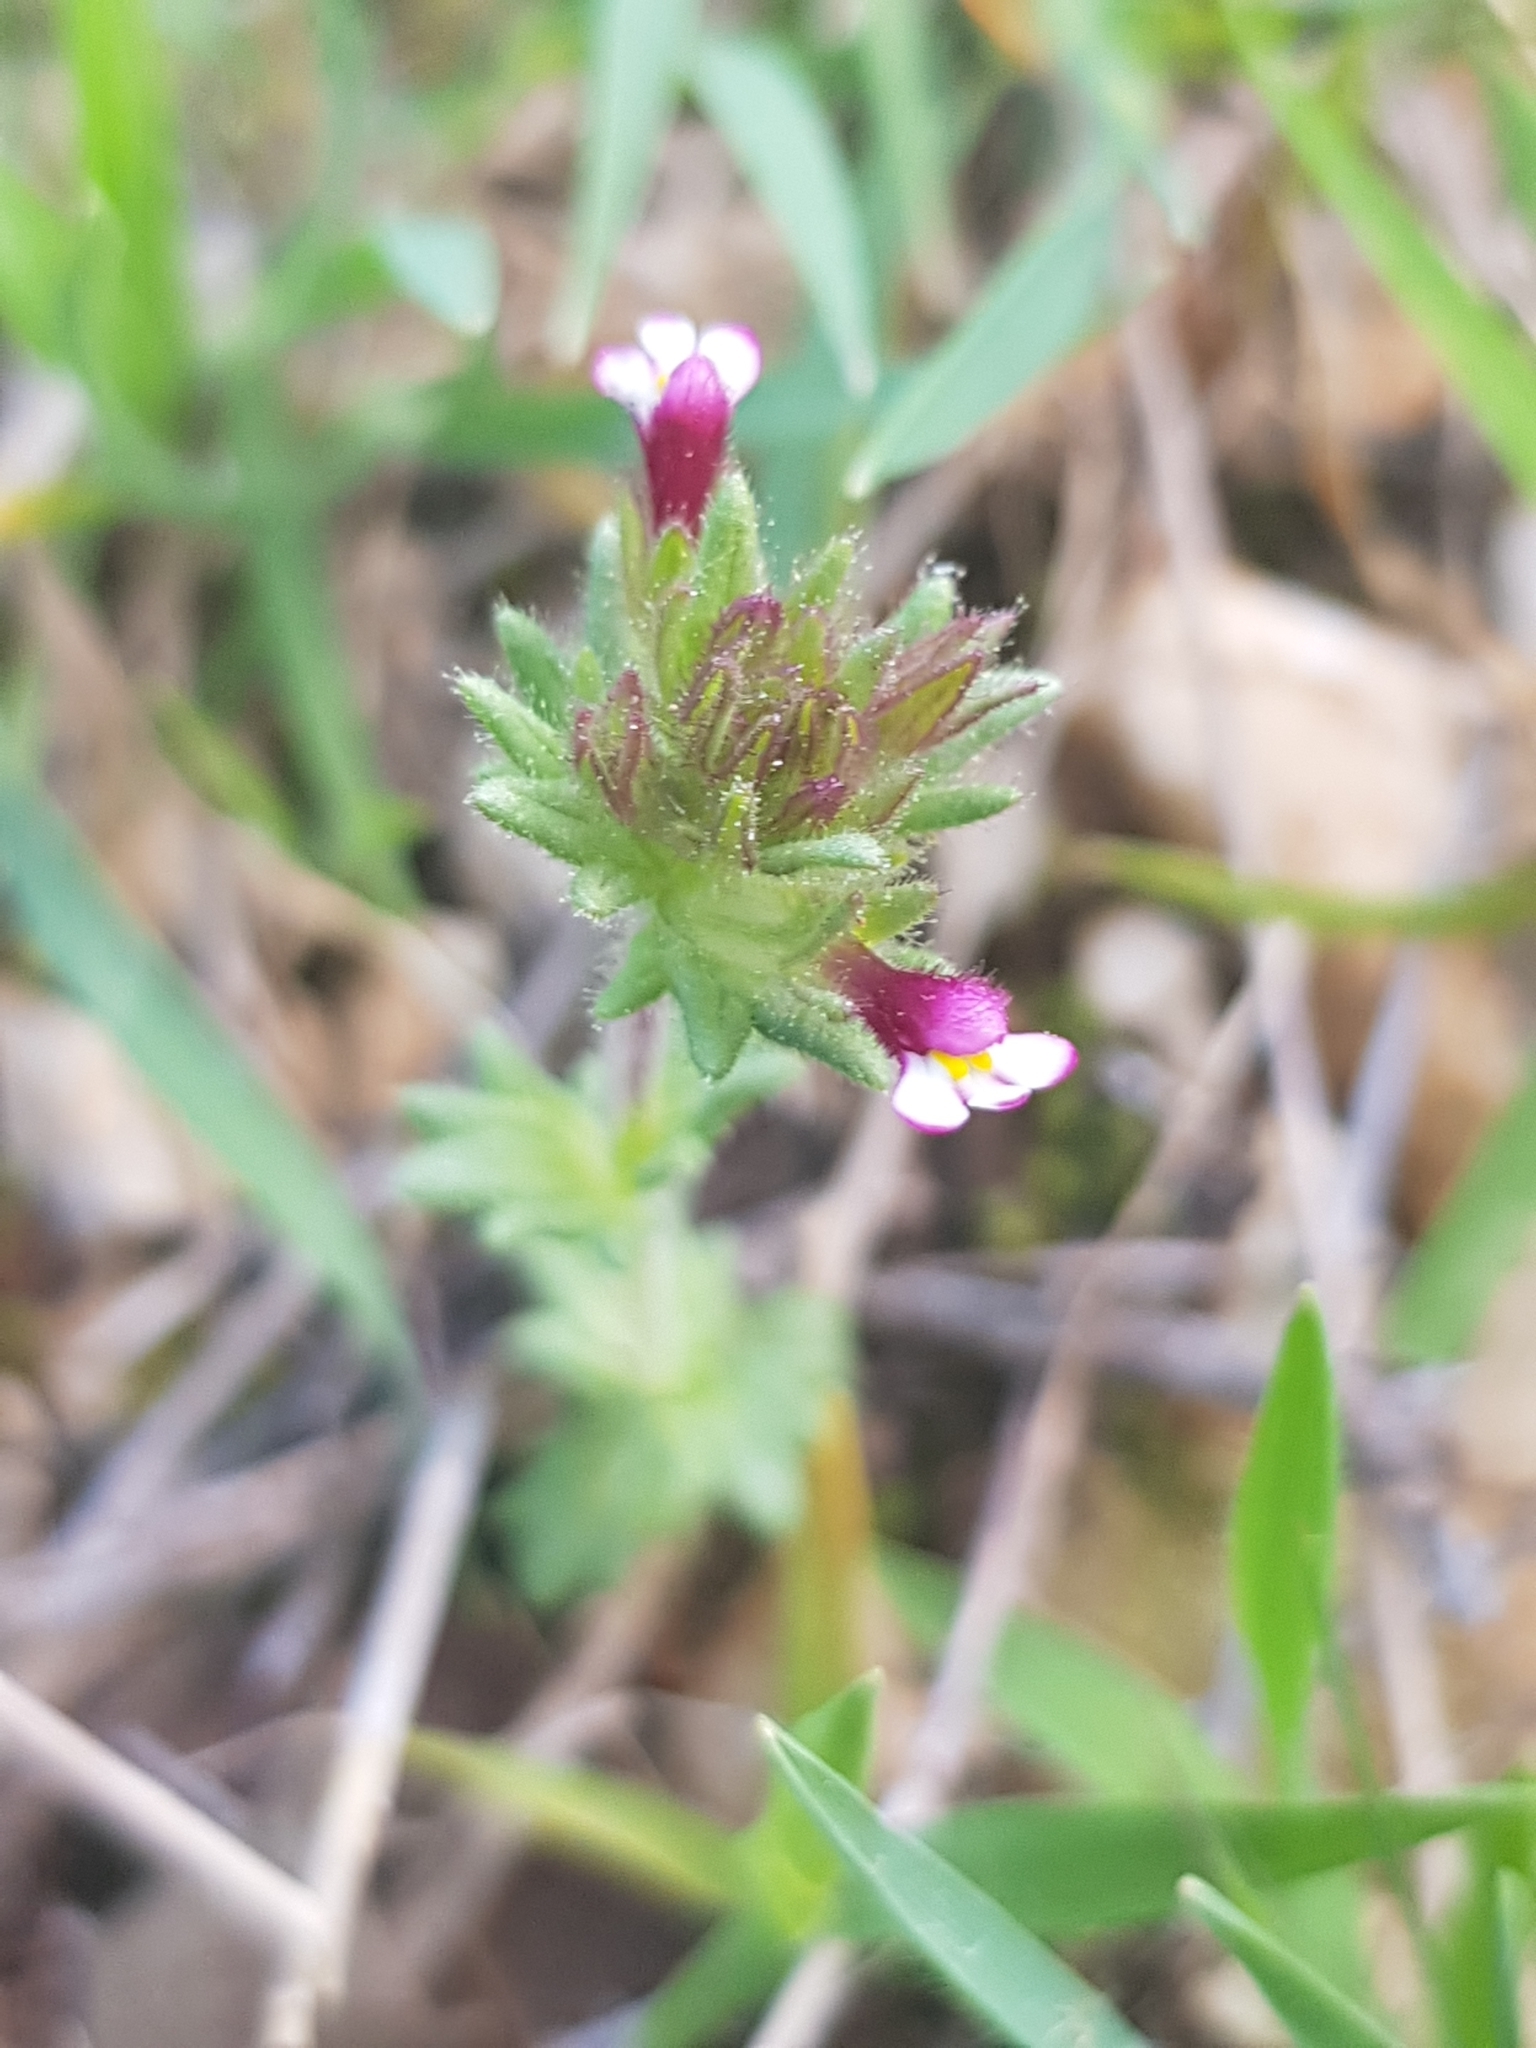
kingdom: Plantae
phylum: Tracheophyta
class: Magnoliopsida
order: Lamiales
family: Orobanchaceae
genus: Parentucellia
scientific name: Parentucellia latifolia
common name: Broadleaf glandweed
